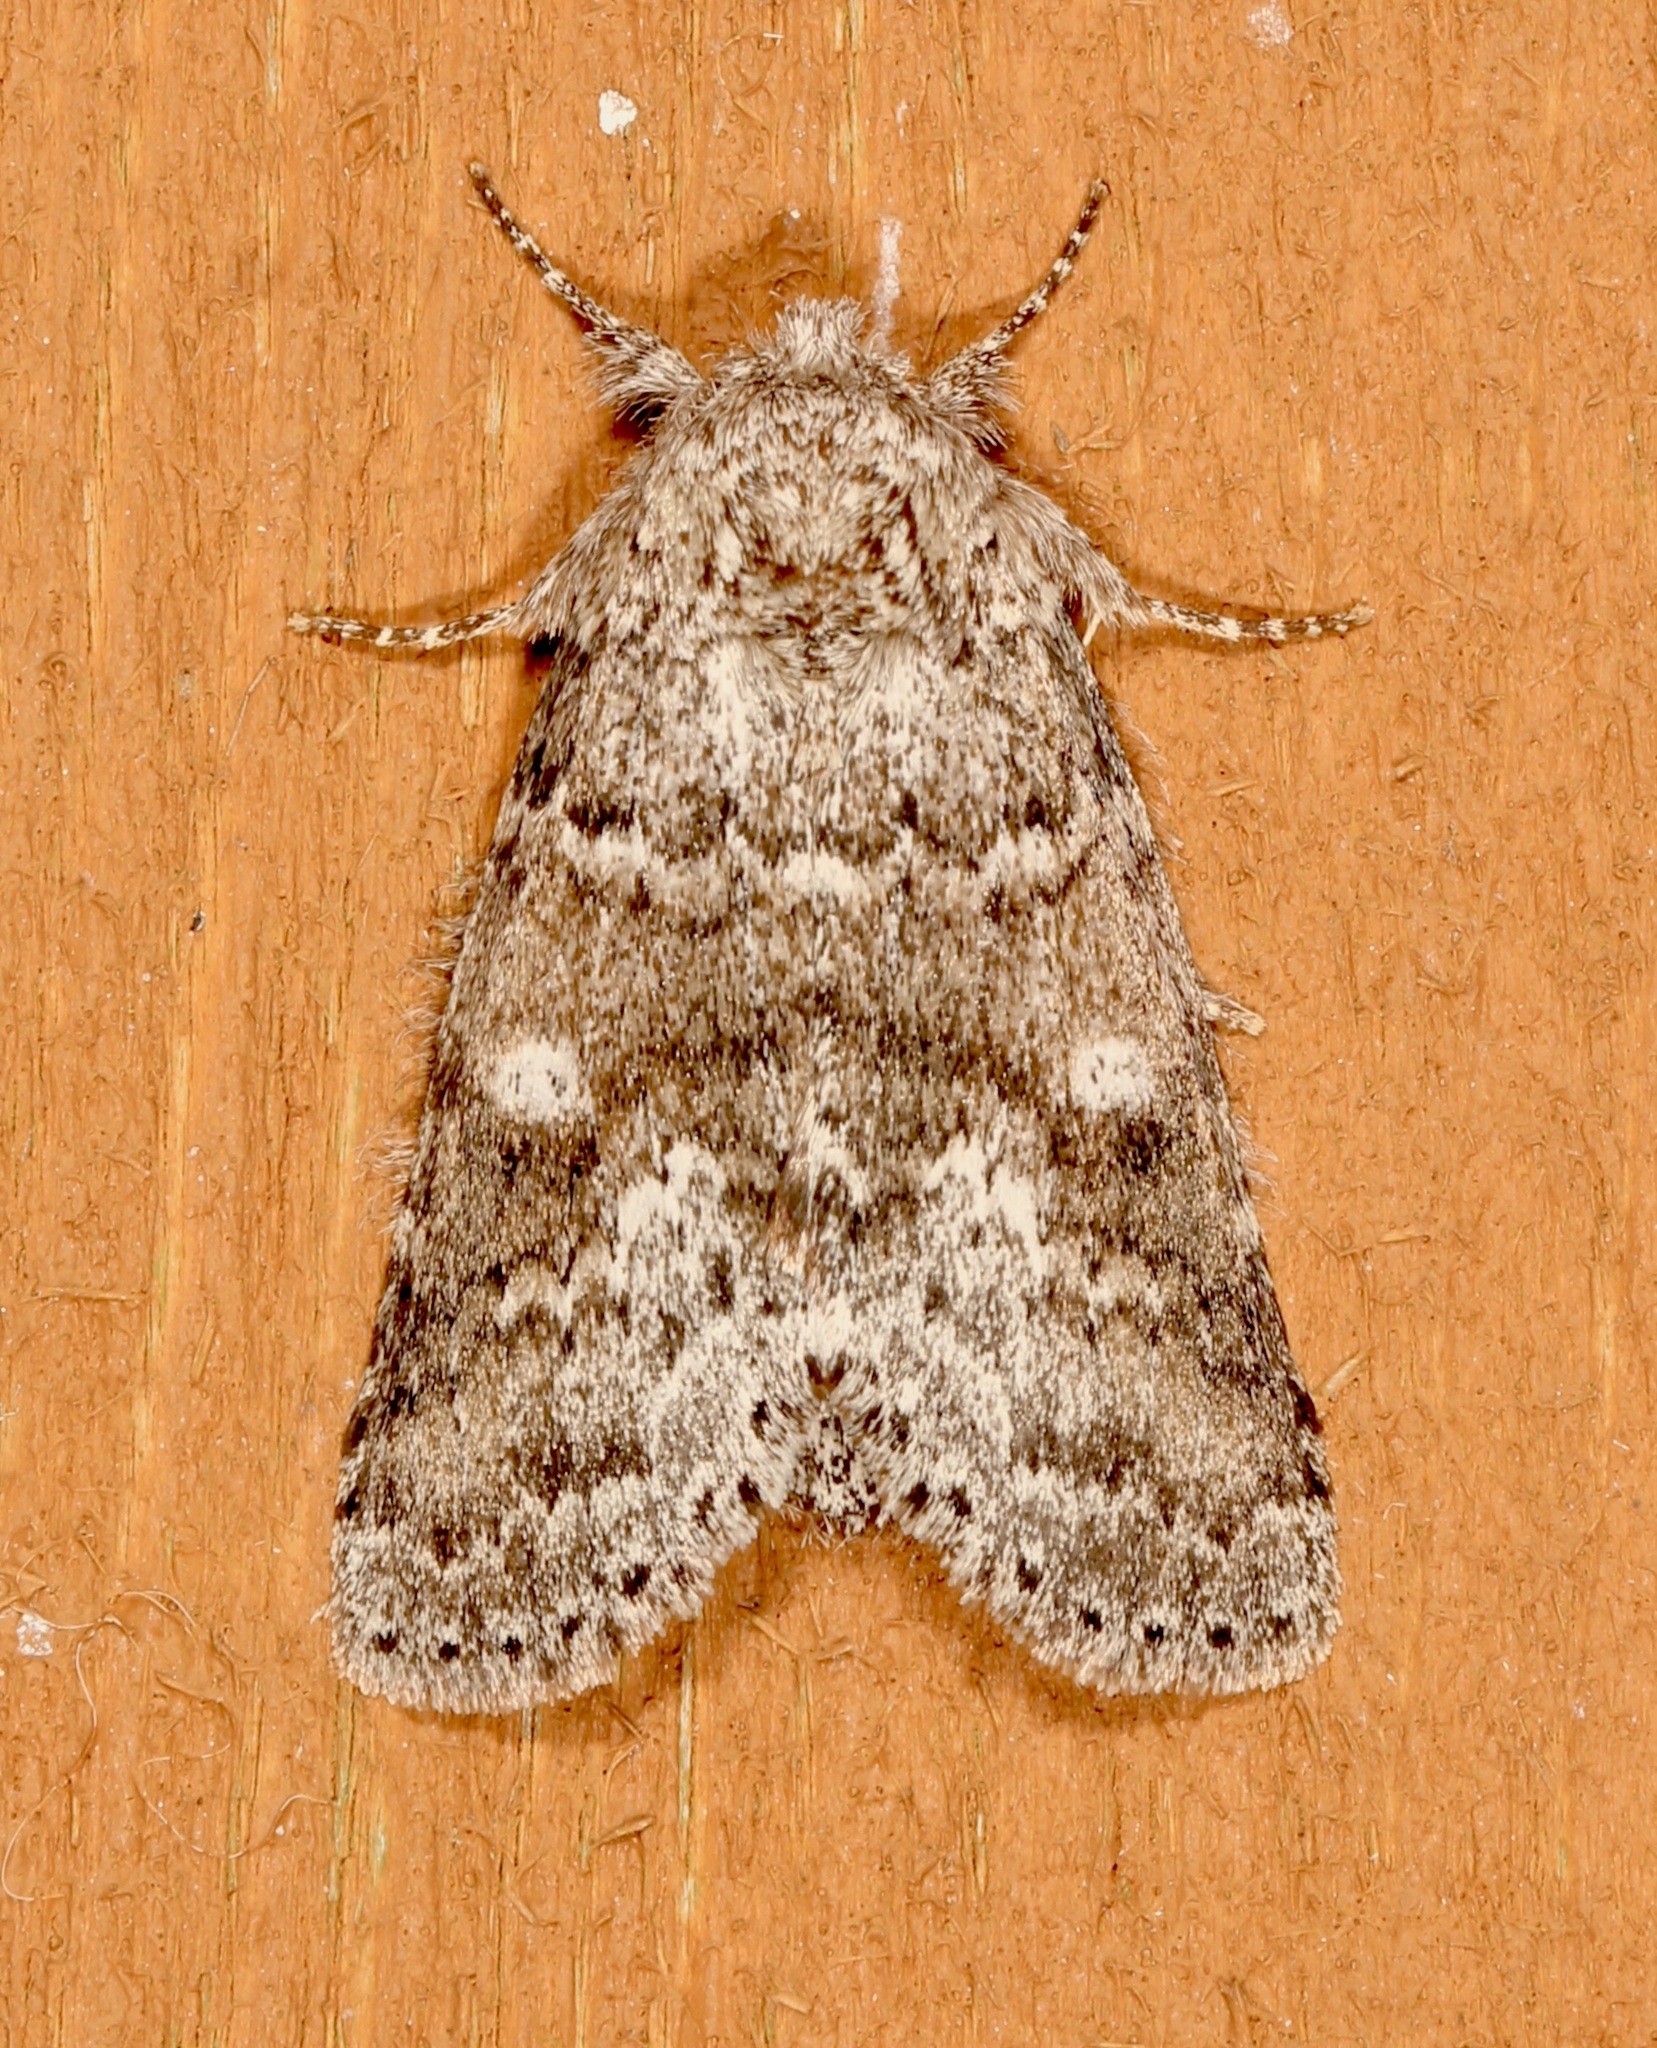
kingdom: Animalia
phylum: Arthropoda
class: Insecta
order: Lepidoptera
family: Notodontidae
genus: Lochmaeus
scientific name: Lochmaeus manteo
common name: Variable oakleaf caterpillar moth
